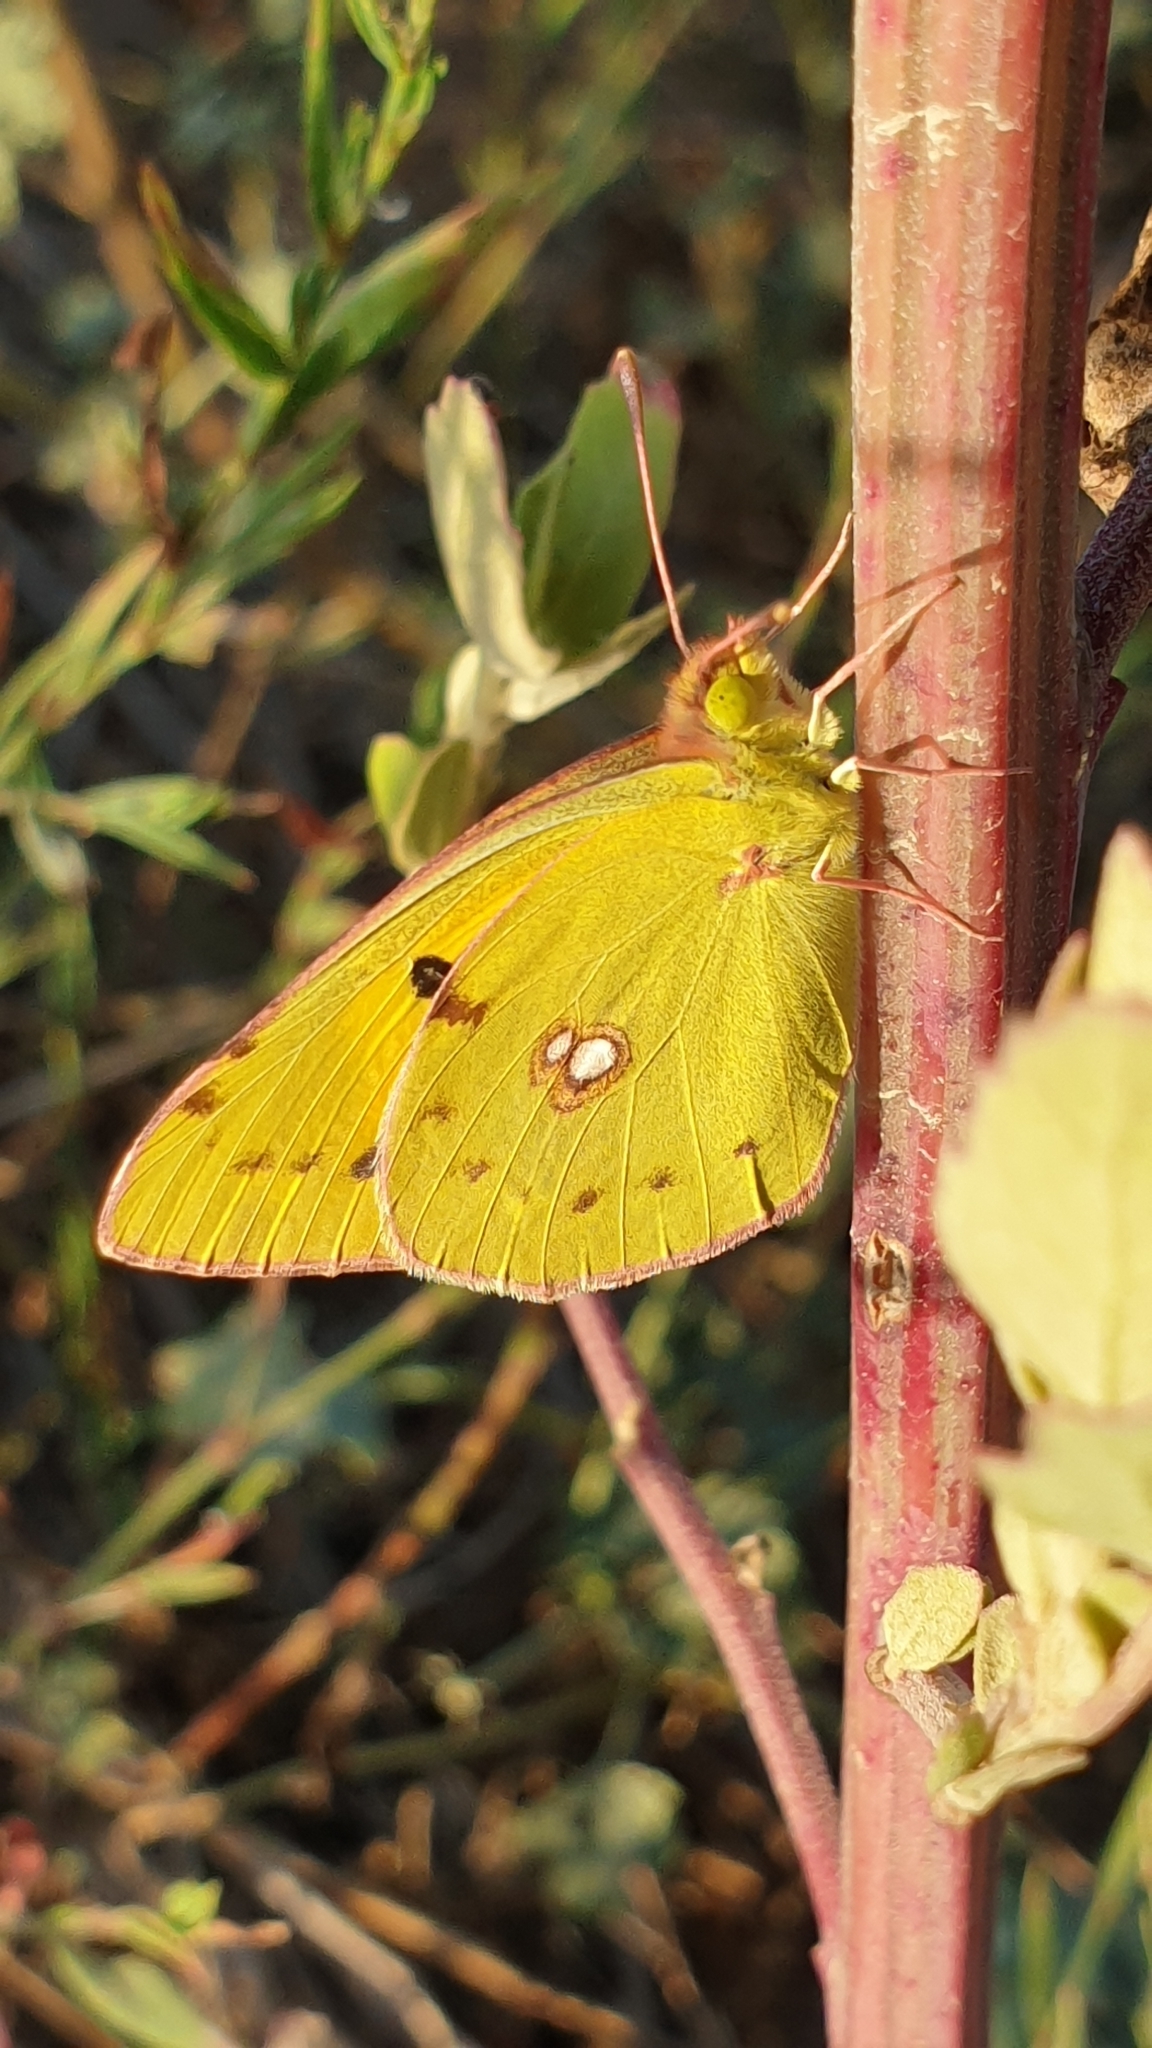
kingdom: Animalia
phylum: Arthropoda
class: Insecta
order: Lepidoptera
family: Pieridae
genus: Colias
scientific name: Colias croceus
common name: Clouded yellow
